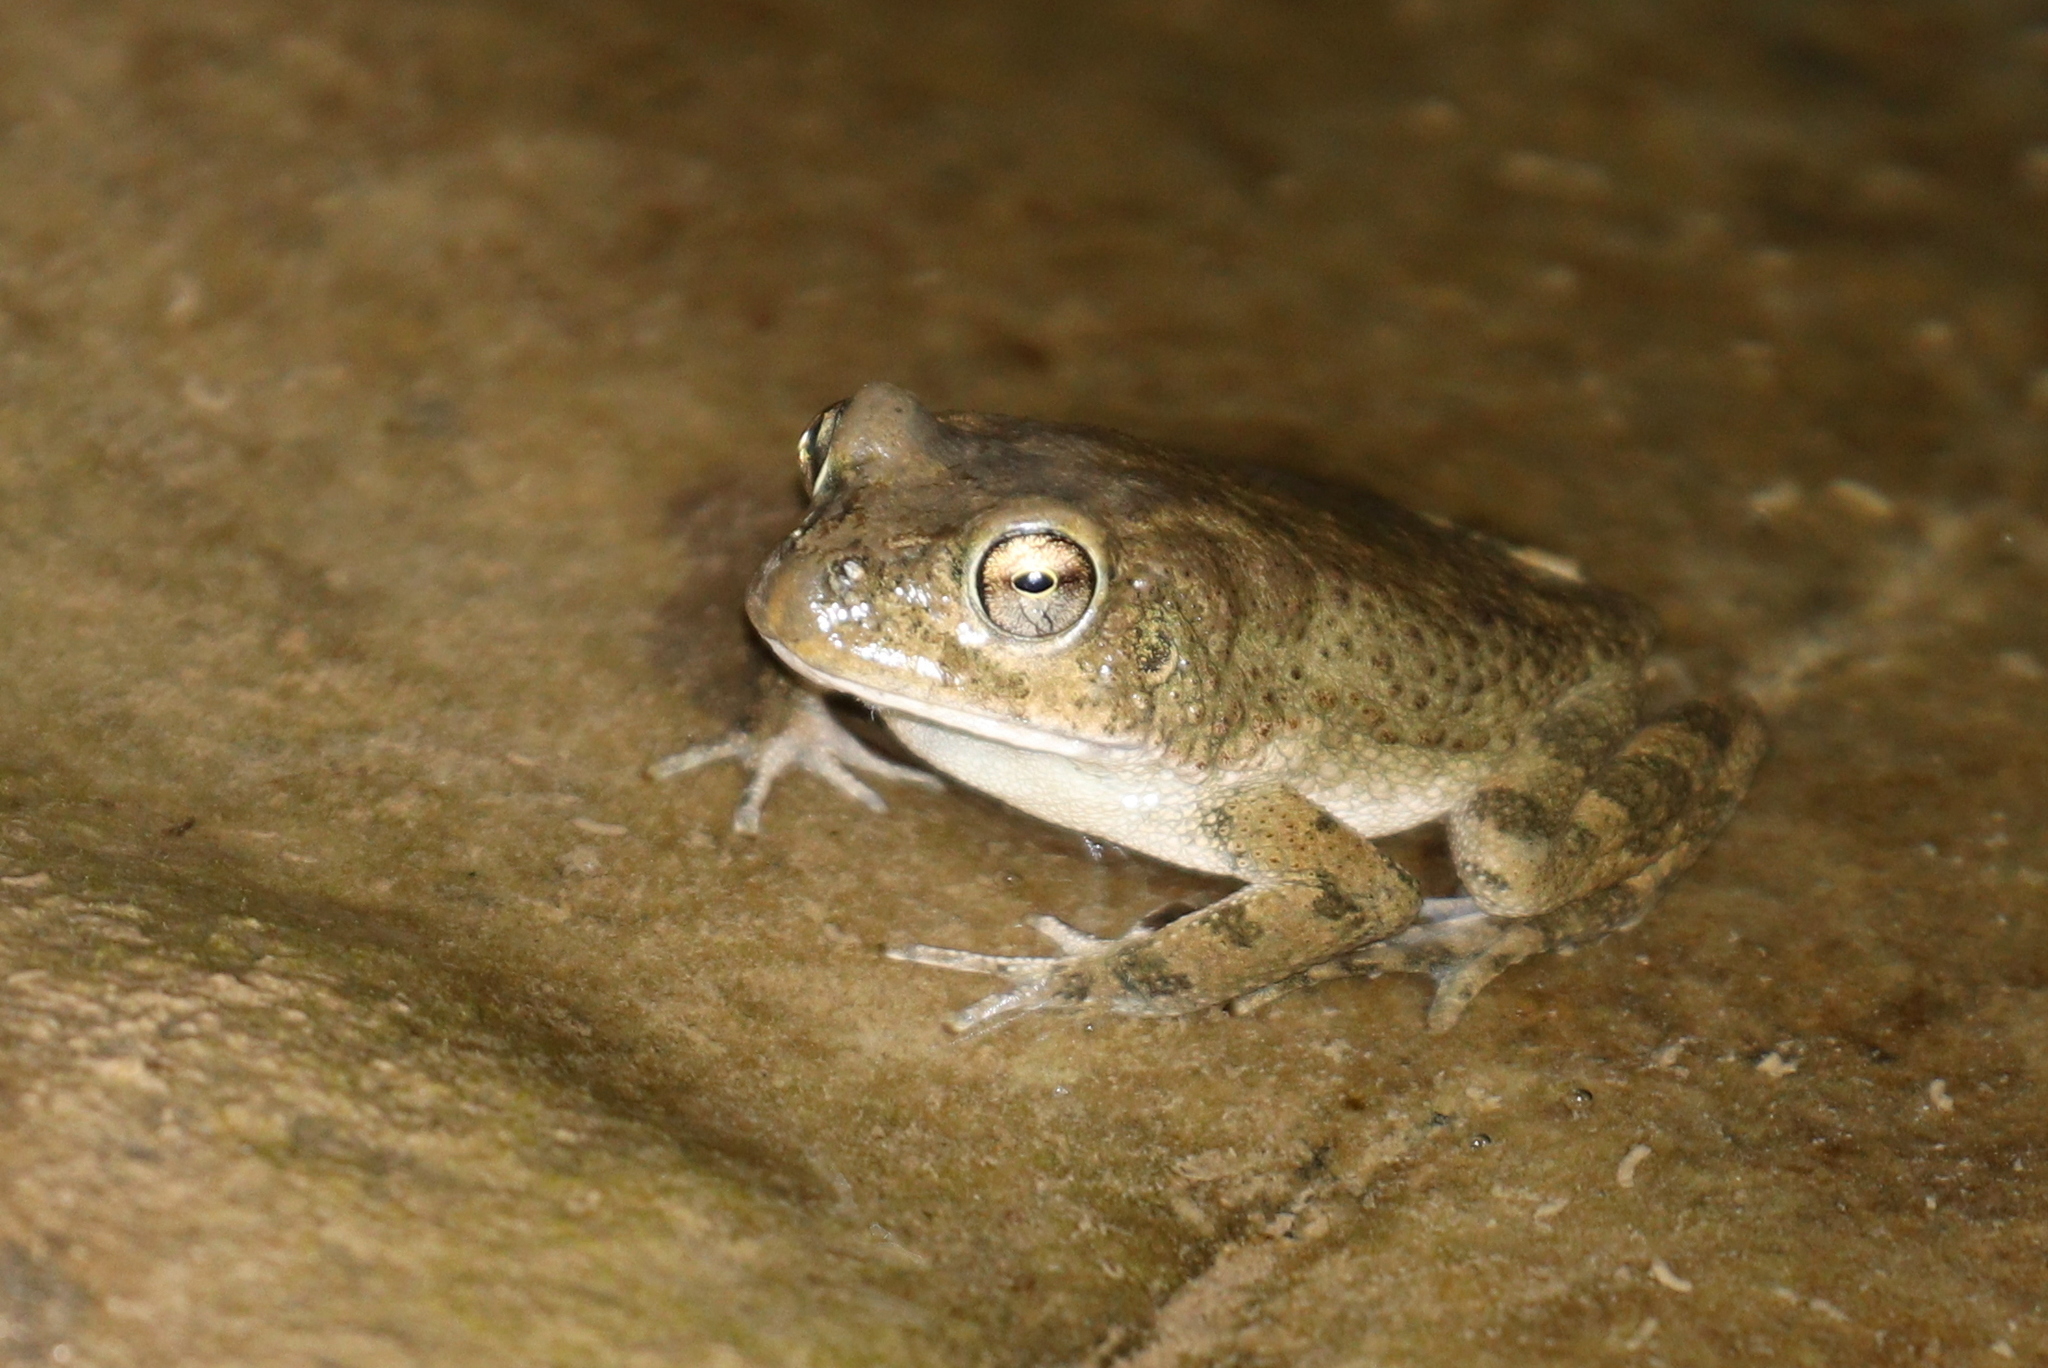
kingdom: Animalia
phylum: Chordata
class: Amphibia
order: Anura
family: Bufonidae
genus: Sclerophrys
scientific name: Sclerophrys arabica
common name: Arabian toad
